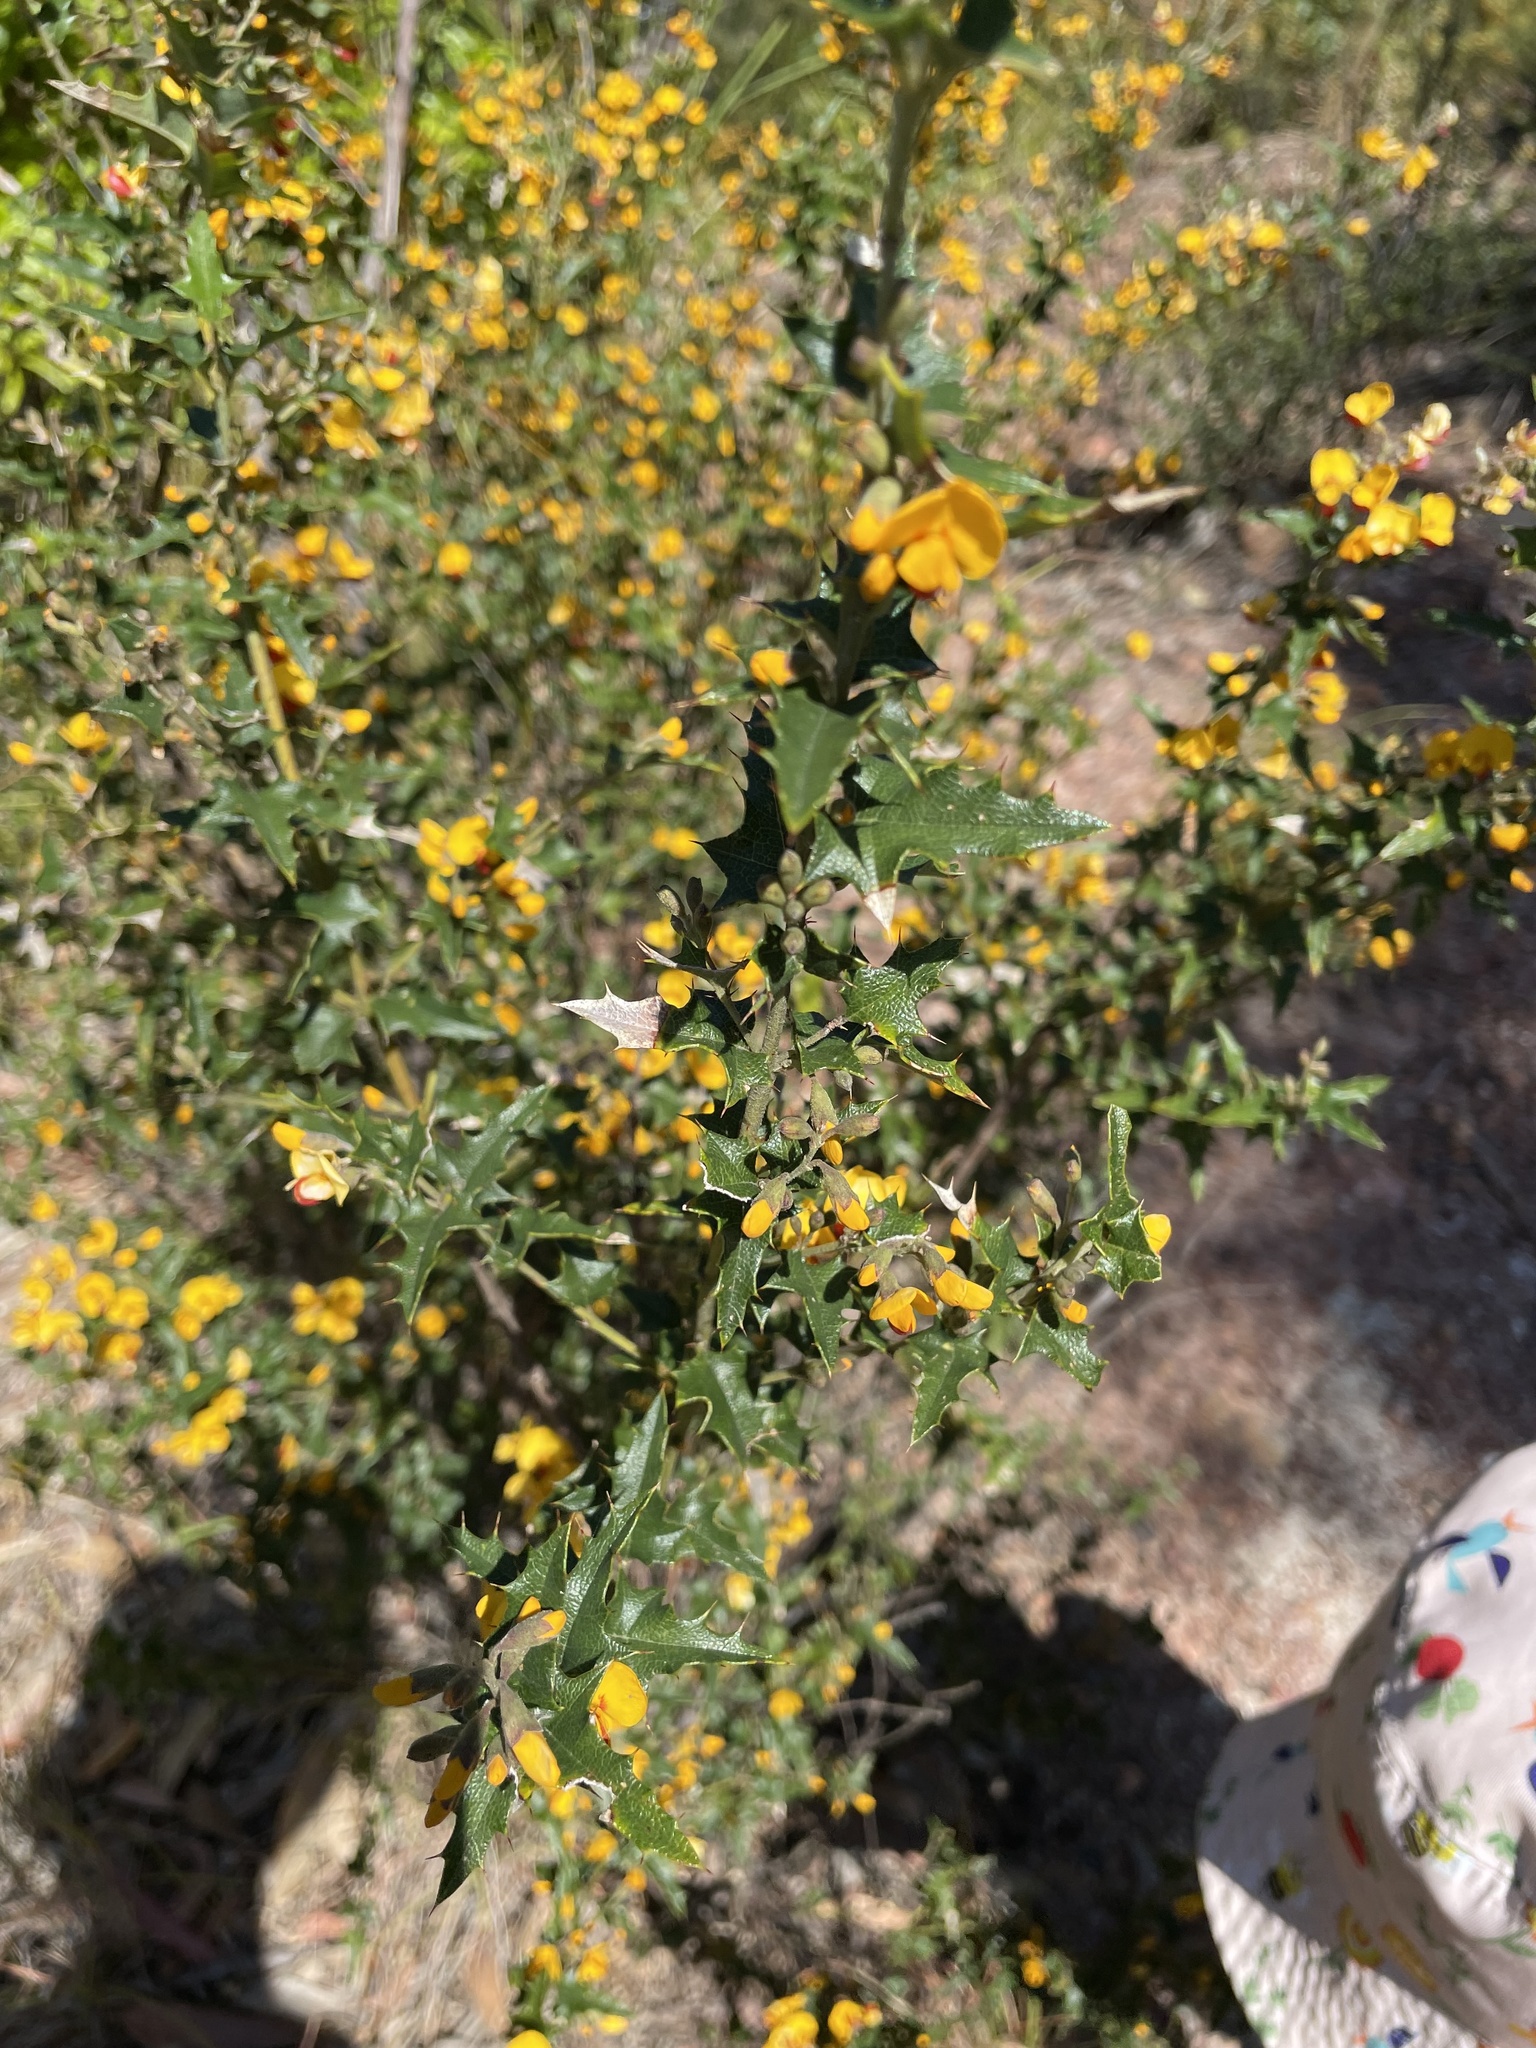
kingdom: Plantae
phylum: Tracheophyta
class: Magnoliopsida
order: Fabales
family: Fabaceae
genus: Podolobium
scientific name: Podolobium ilicifolium
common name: Native holly
